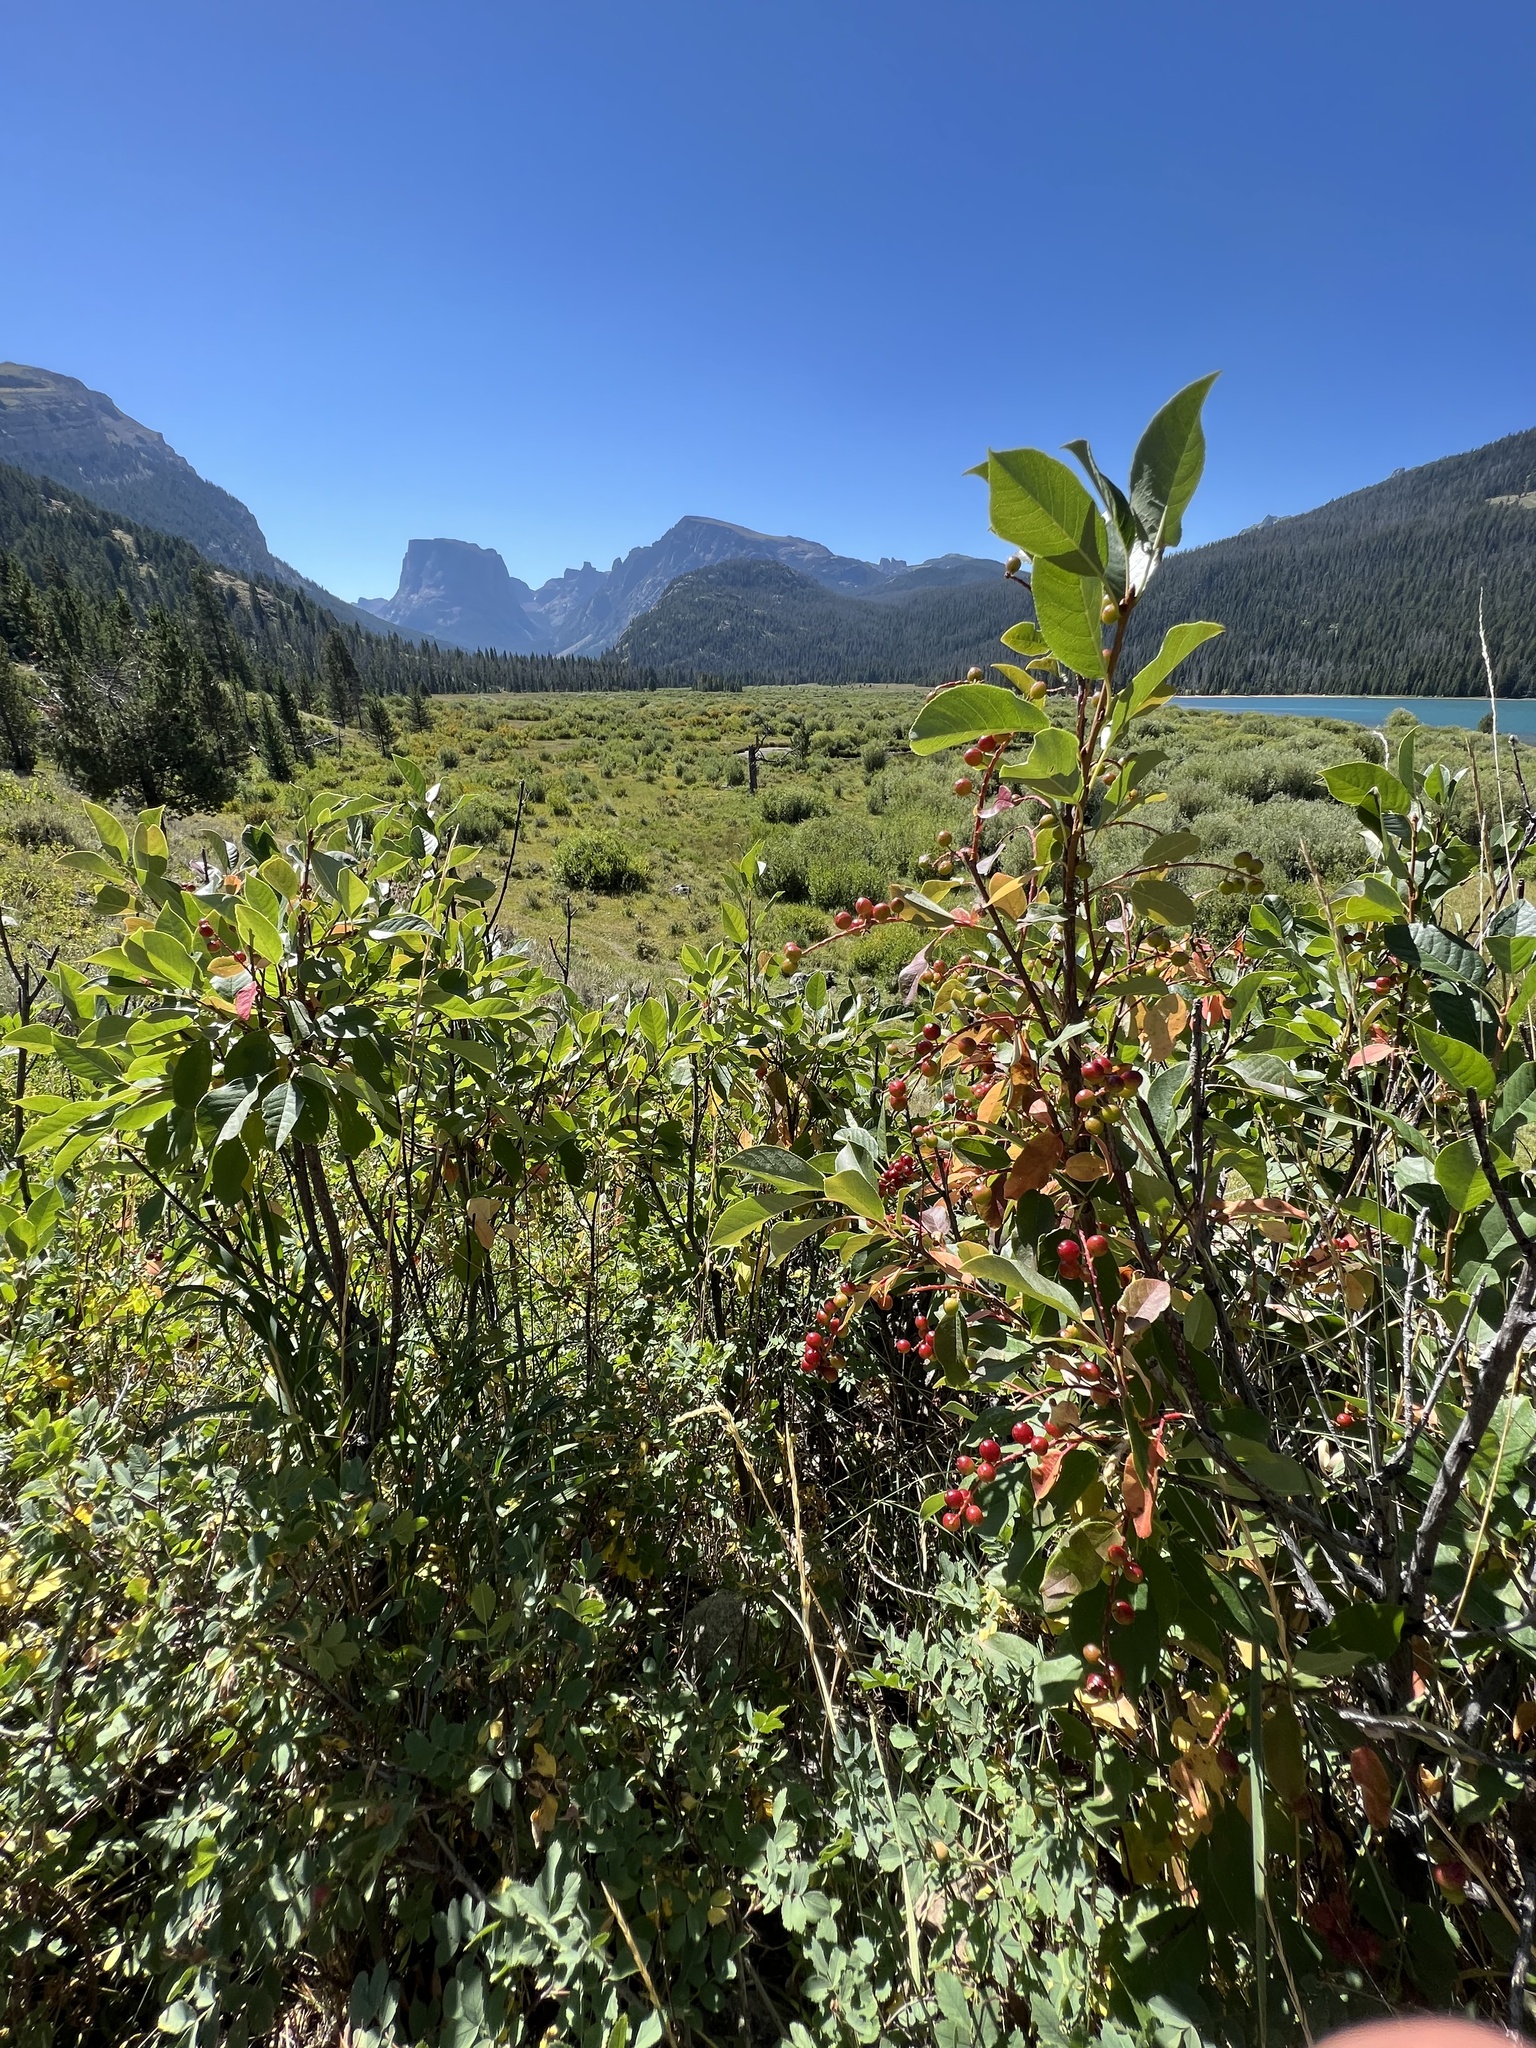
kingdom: Plantae
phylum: Tracheophyta
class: Magnoliopsida
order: Rosales
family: Rosaceae
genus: Prunus
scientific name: Prunus virginiana
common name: Chokecherry
